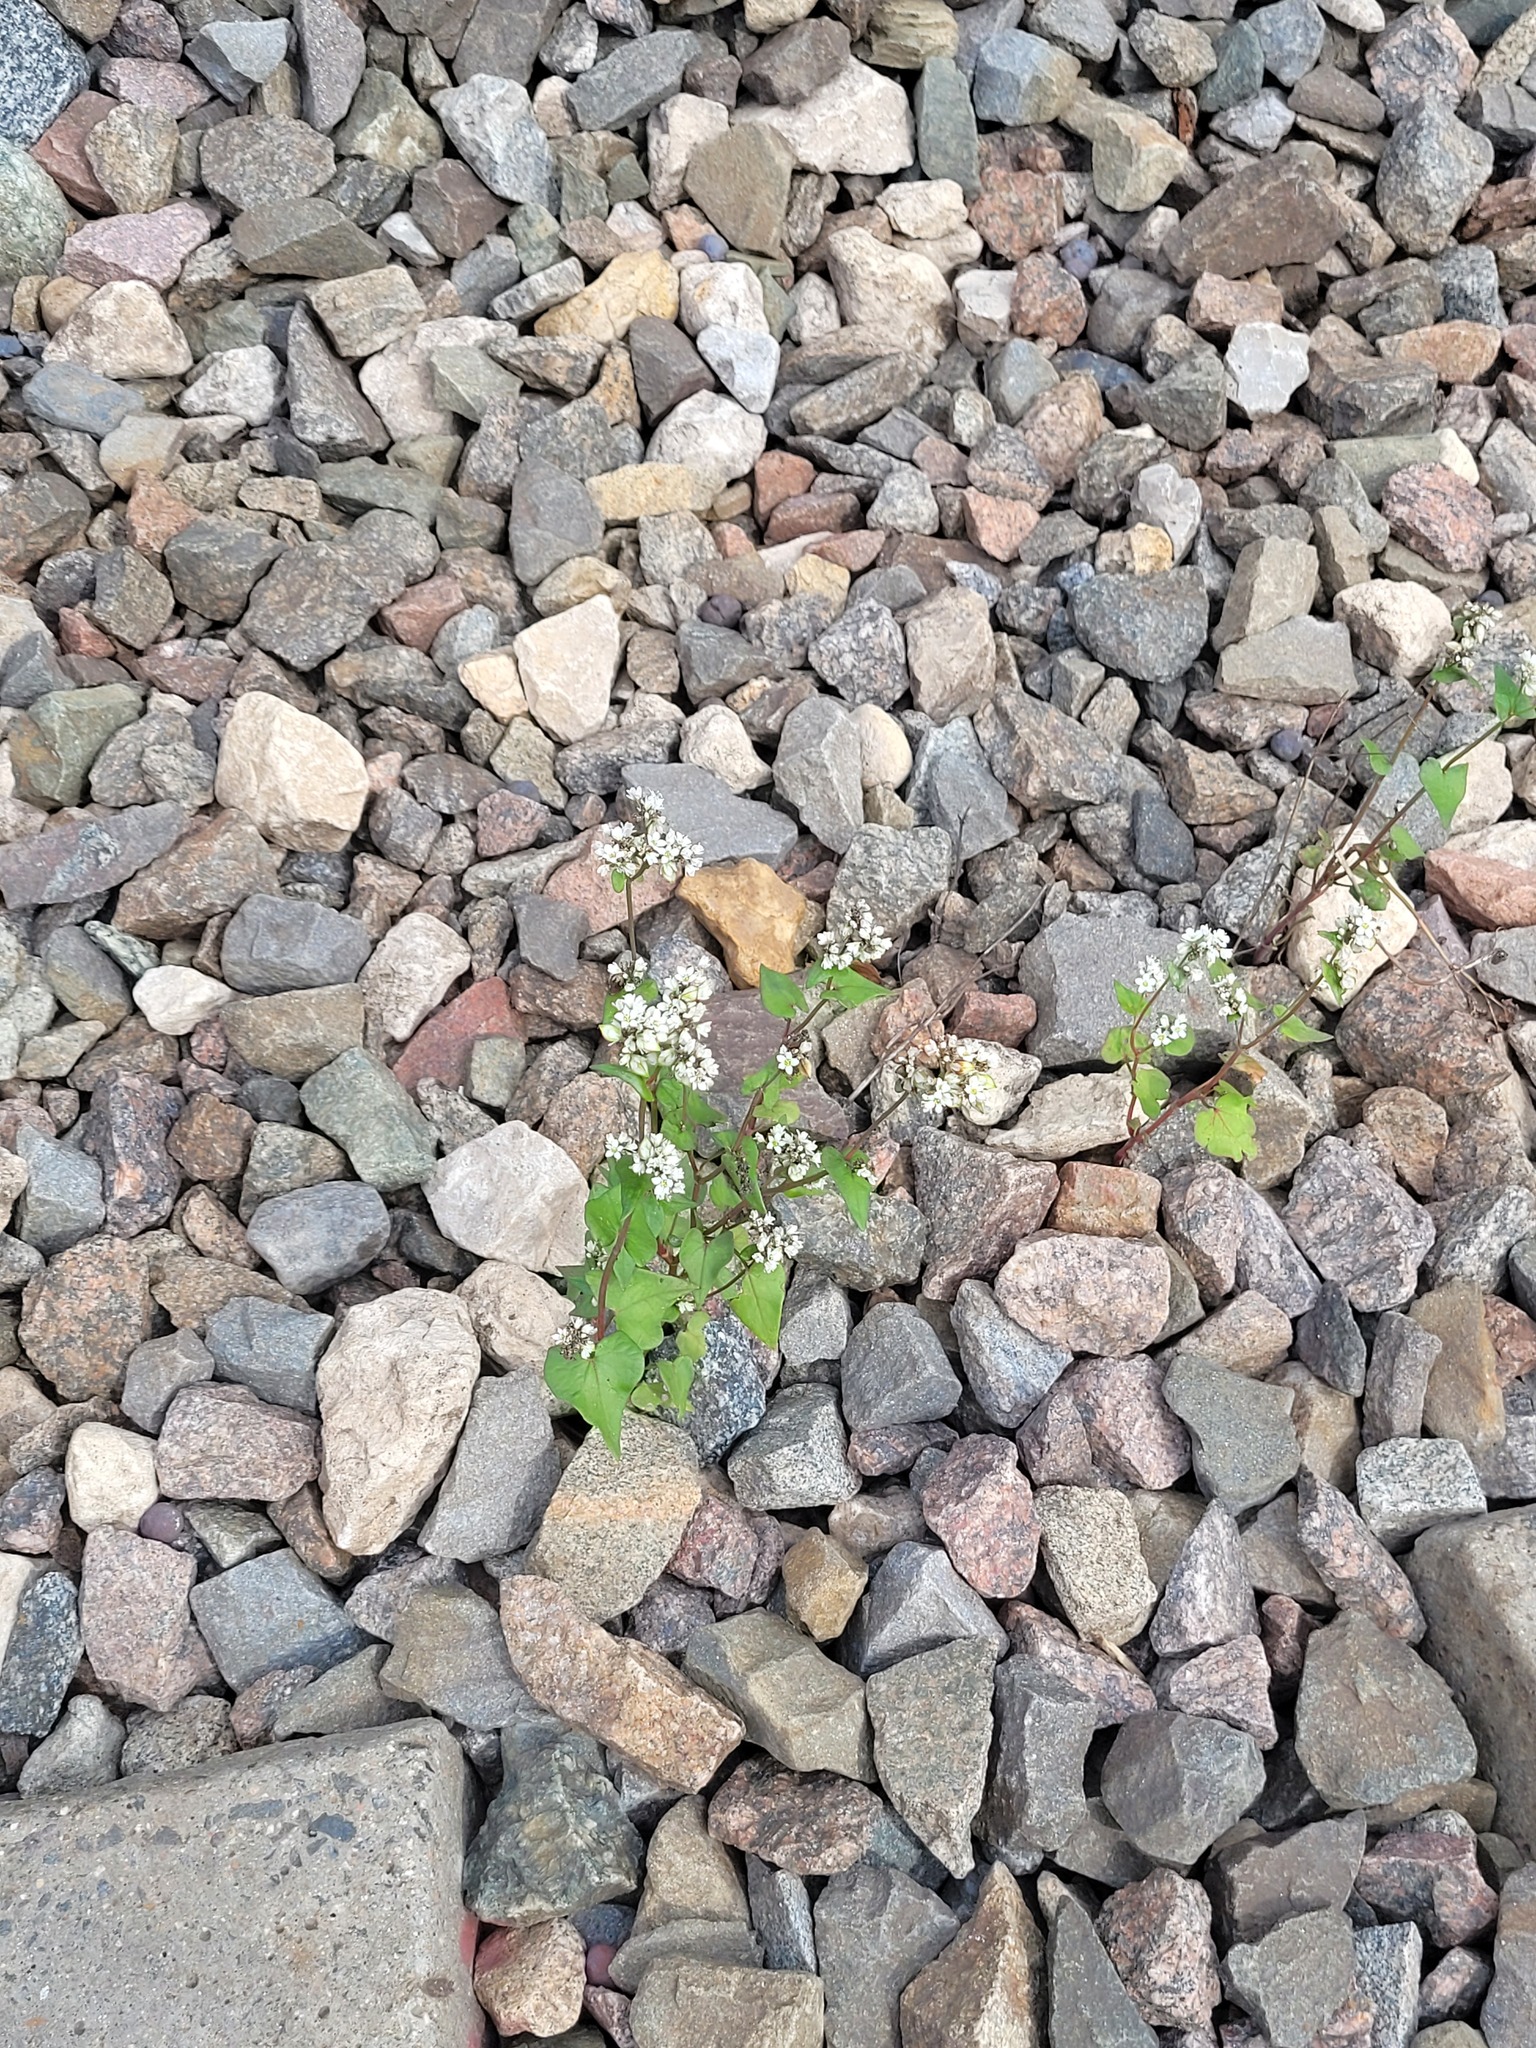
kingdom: Plantae
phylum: Tracheophyta
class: Magnoliopsida
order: Caryophyllales
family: Polygonaceae
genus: Fagopyrum
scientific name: Fagopyrum esculentum
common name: Buckwheat
